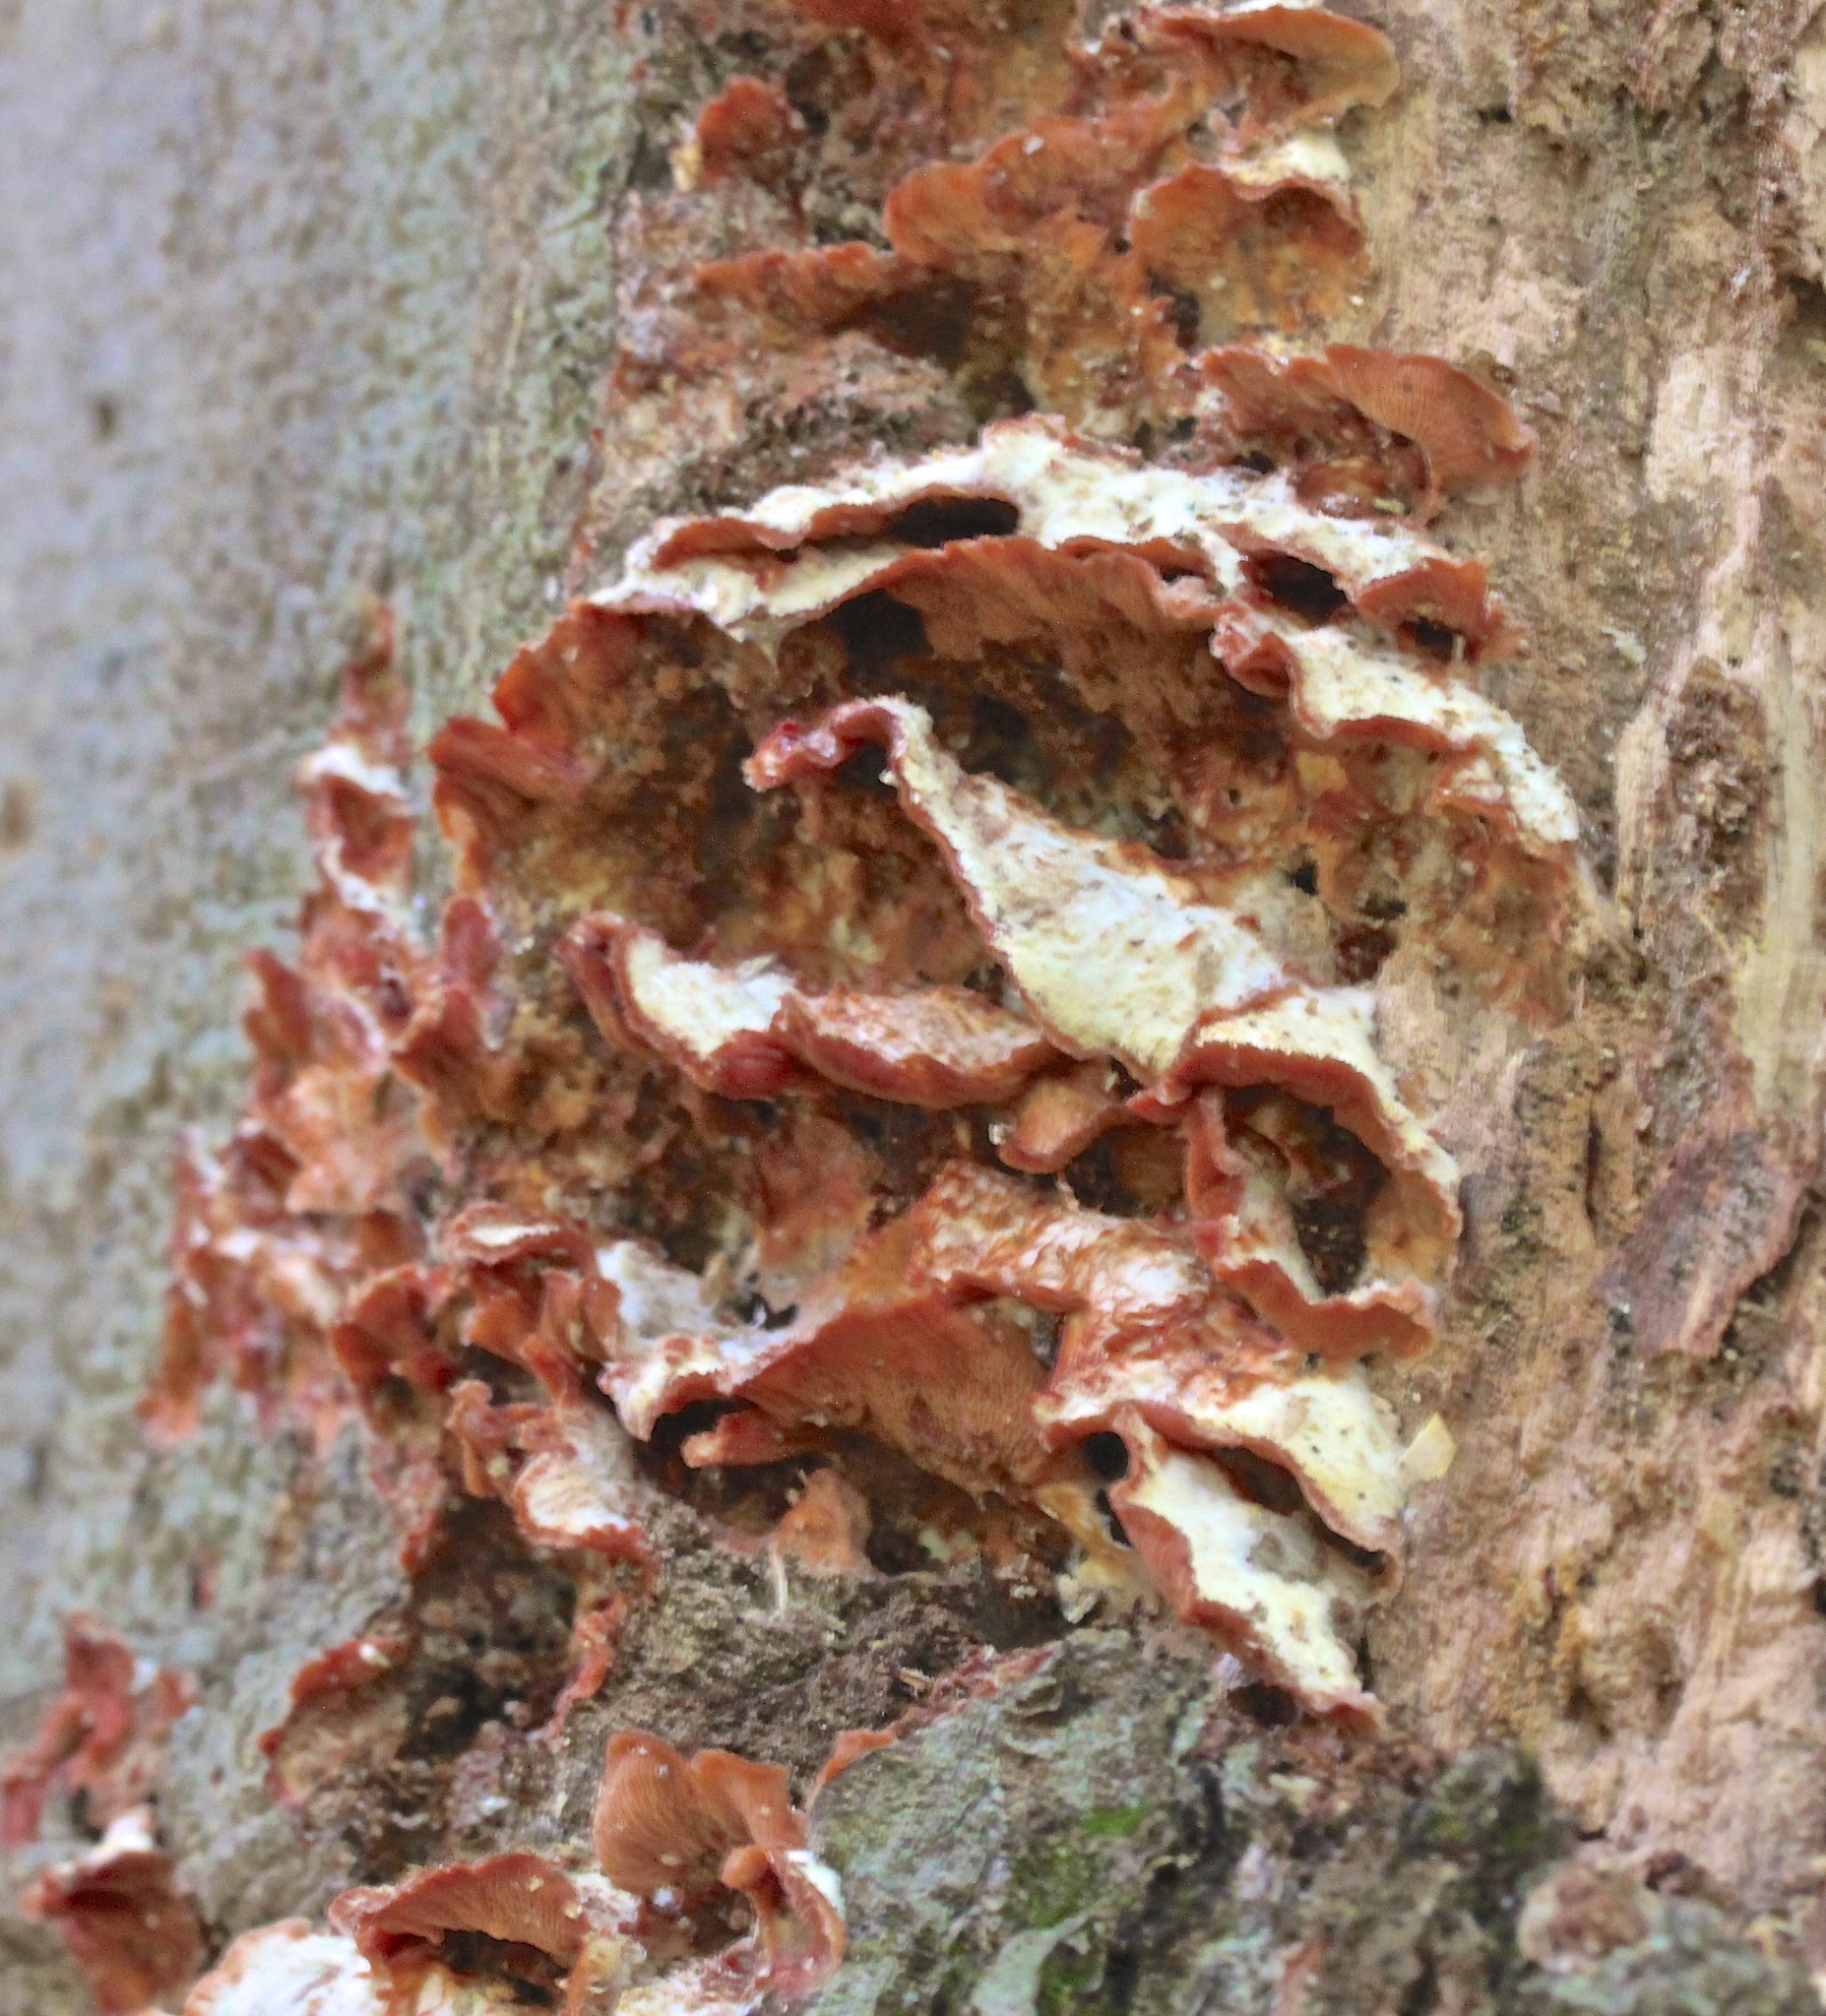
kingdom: Fungi
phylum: Basidiomycota
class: Agaricomycetes
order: Polyporales
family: Meruliaceae
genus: Phlebia
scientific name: Phlebia tremellosa
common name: Jelly rot
